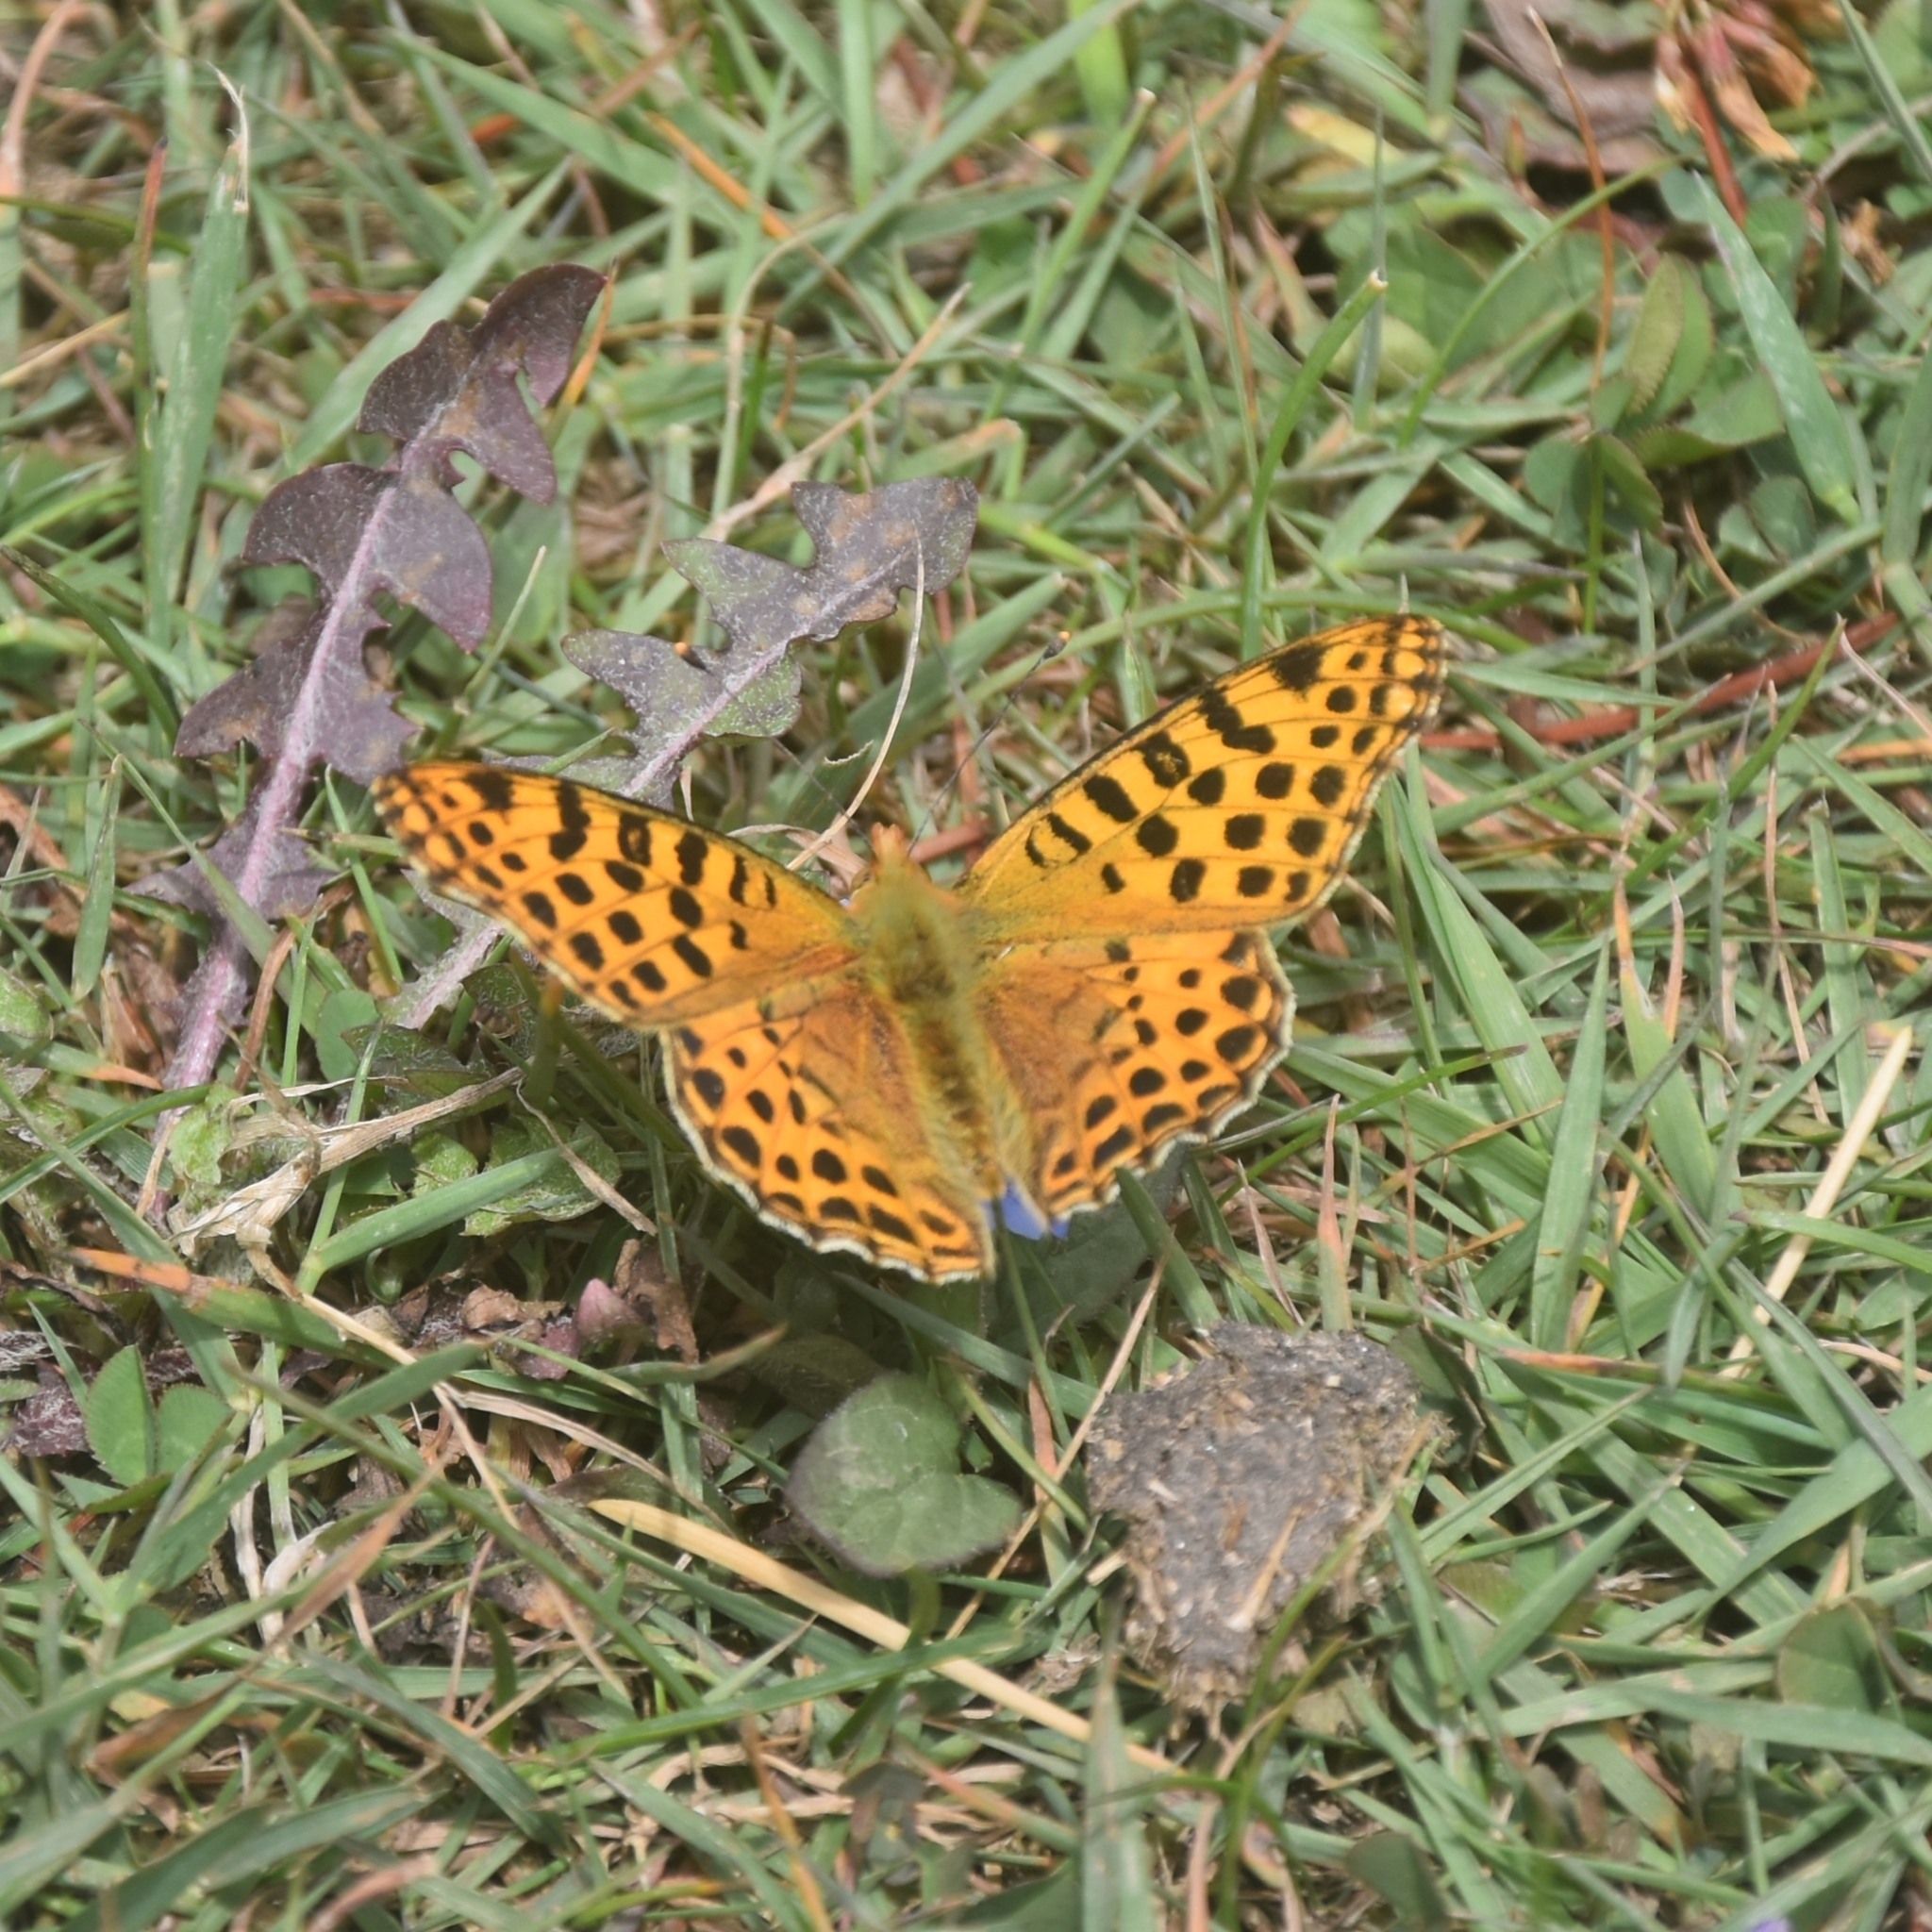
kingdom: Animalia
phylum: Arthropoda
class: Insecta
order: Lepidoptera
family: Nymphalidae
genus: Issoria
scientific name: Issoria
